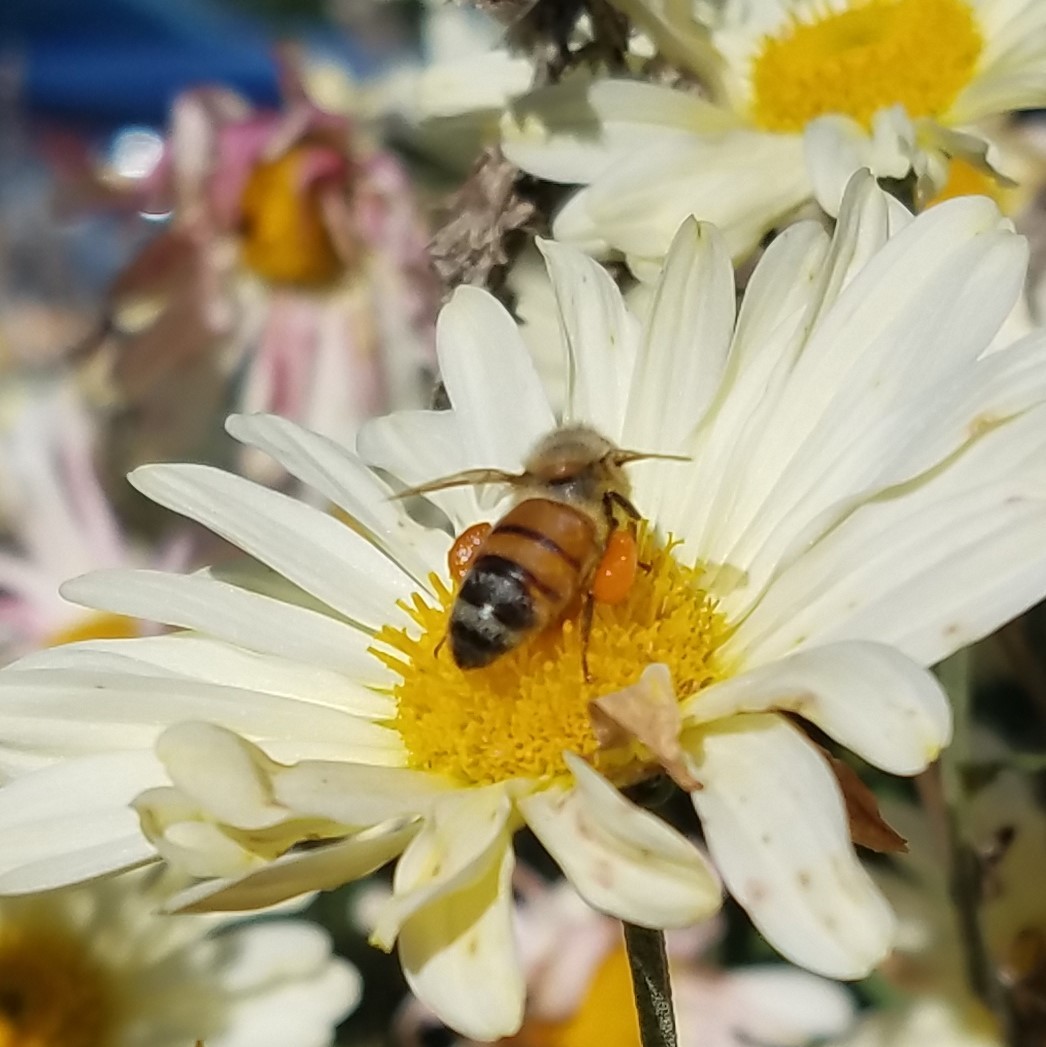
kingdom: Animalia
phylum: Arthropoda
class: Insecta
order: Hymenoptera
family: Apidae
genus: Apis
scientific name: Apis mellifera
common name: Honey bee
